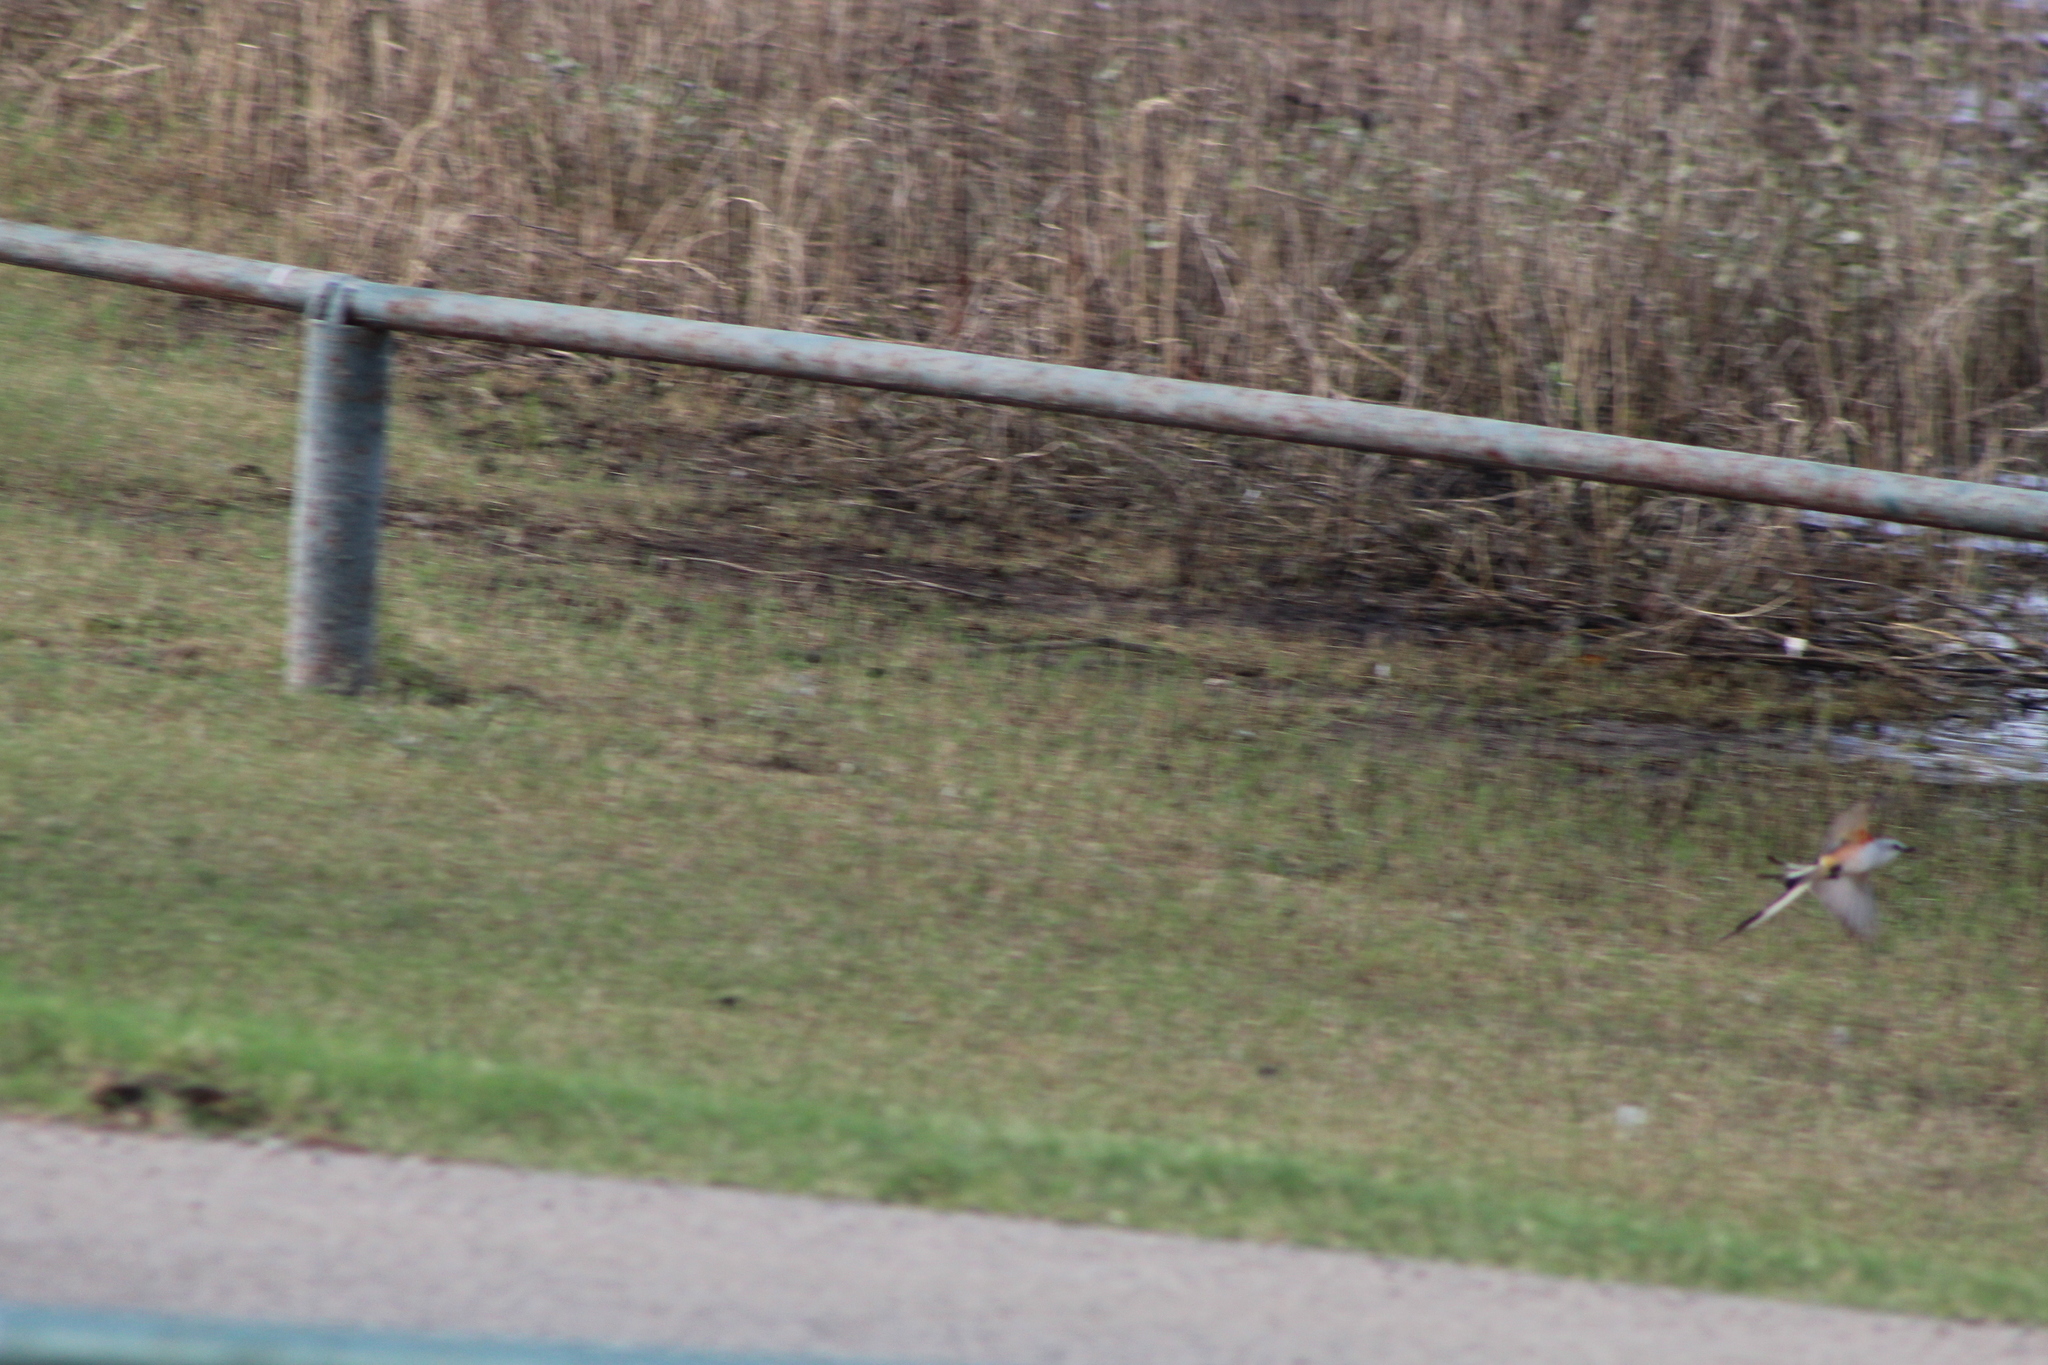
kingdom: Animalia
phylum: Chordata
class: Aves
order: Passeriformes
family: Tyrannidae
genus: Tyrannus
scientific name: Tyrannus forficatus
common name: Scissor-tailed flycatcher
